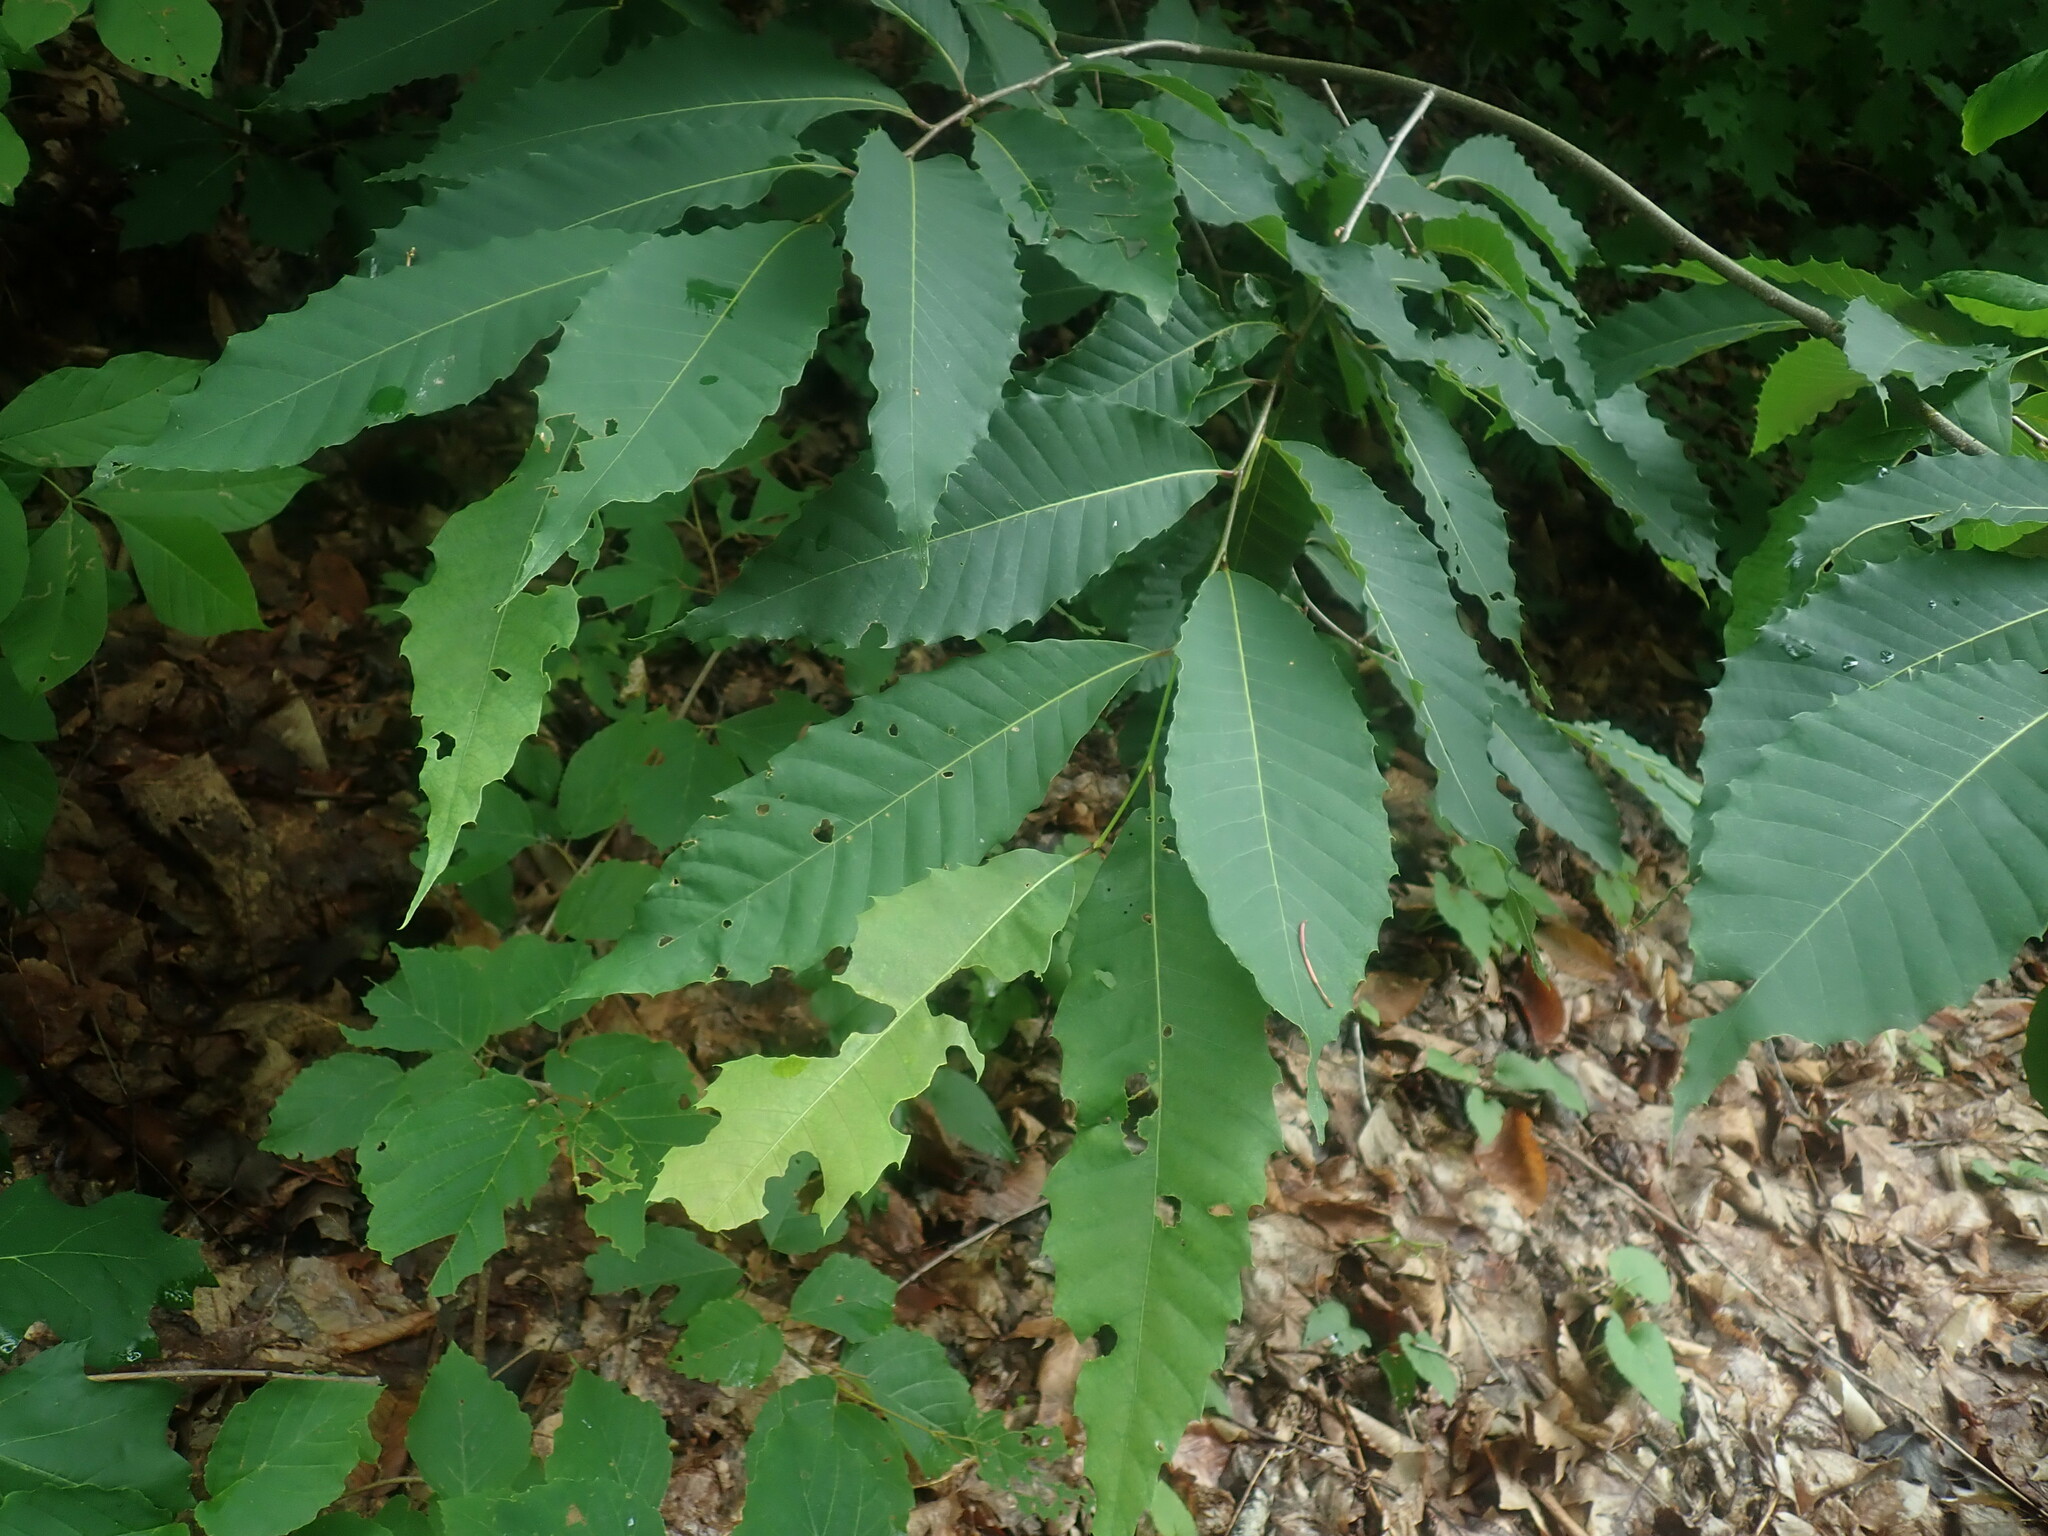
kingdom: Plantae
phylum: Tracheophyta
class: Magnoliopsida
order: Fagales
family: Fagaceae
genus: Castanea
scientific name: Castanea dentata
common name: American chestnut
